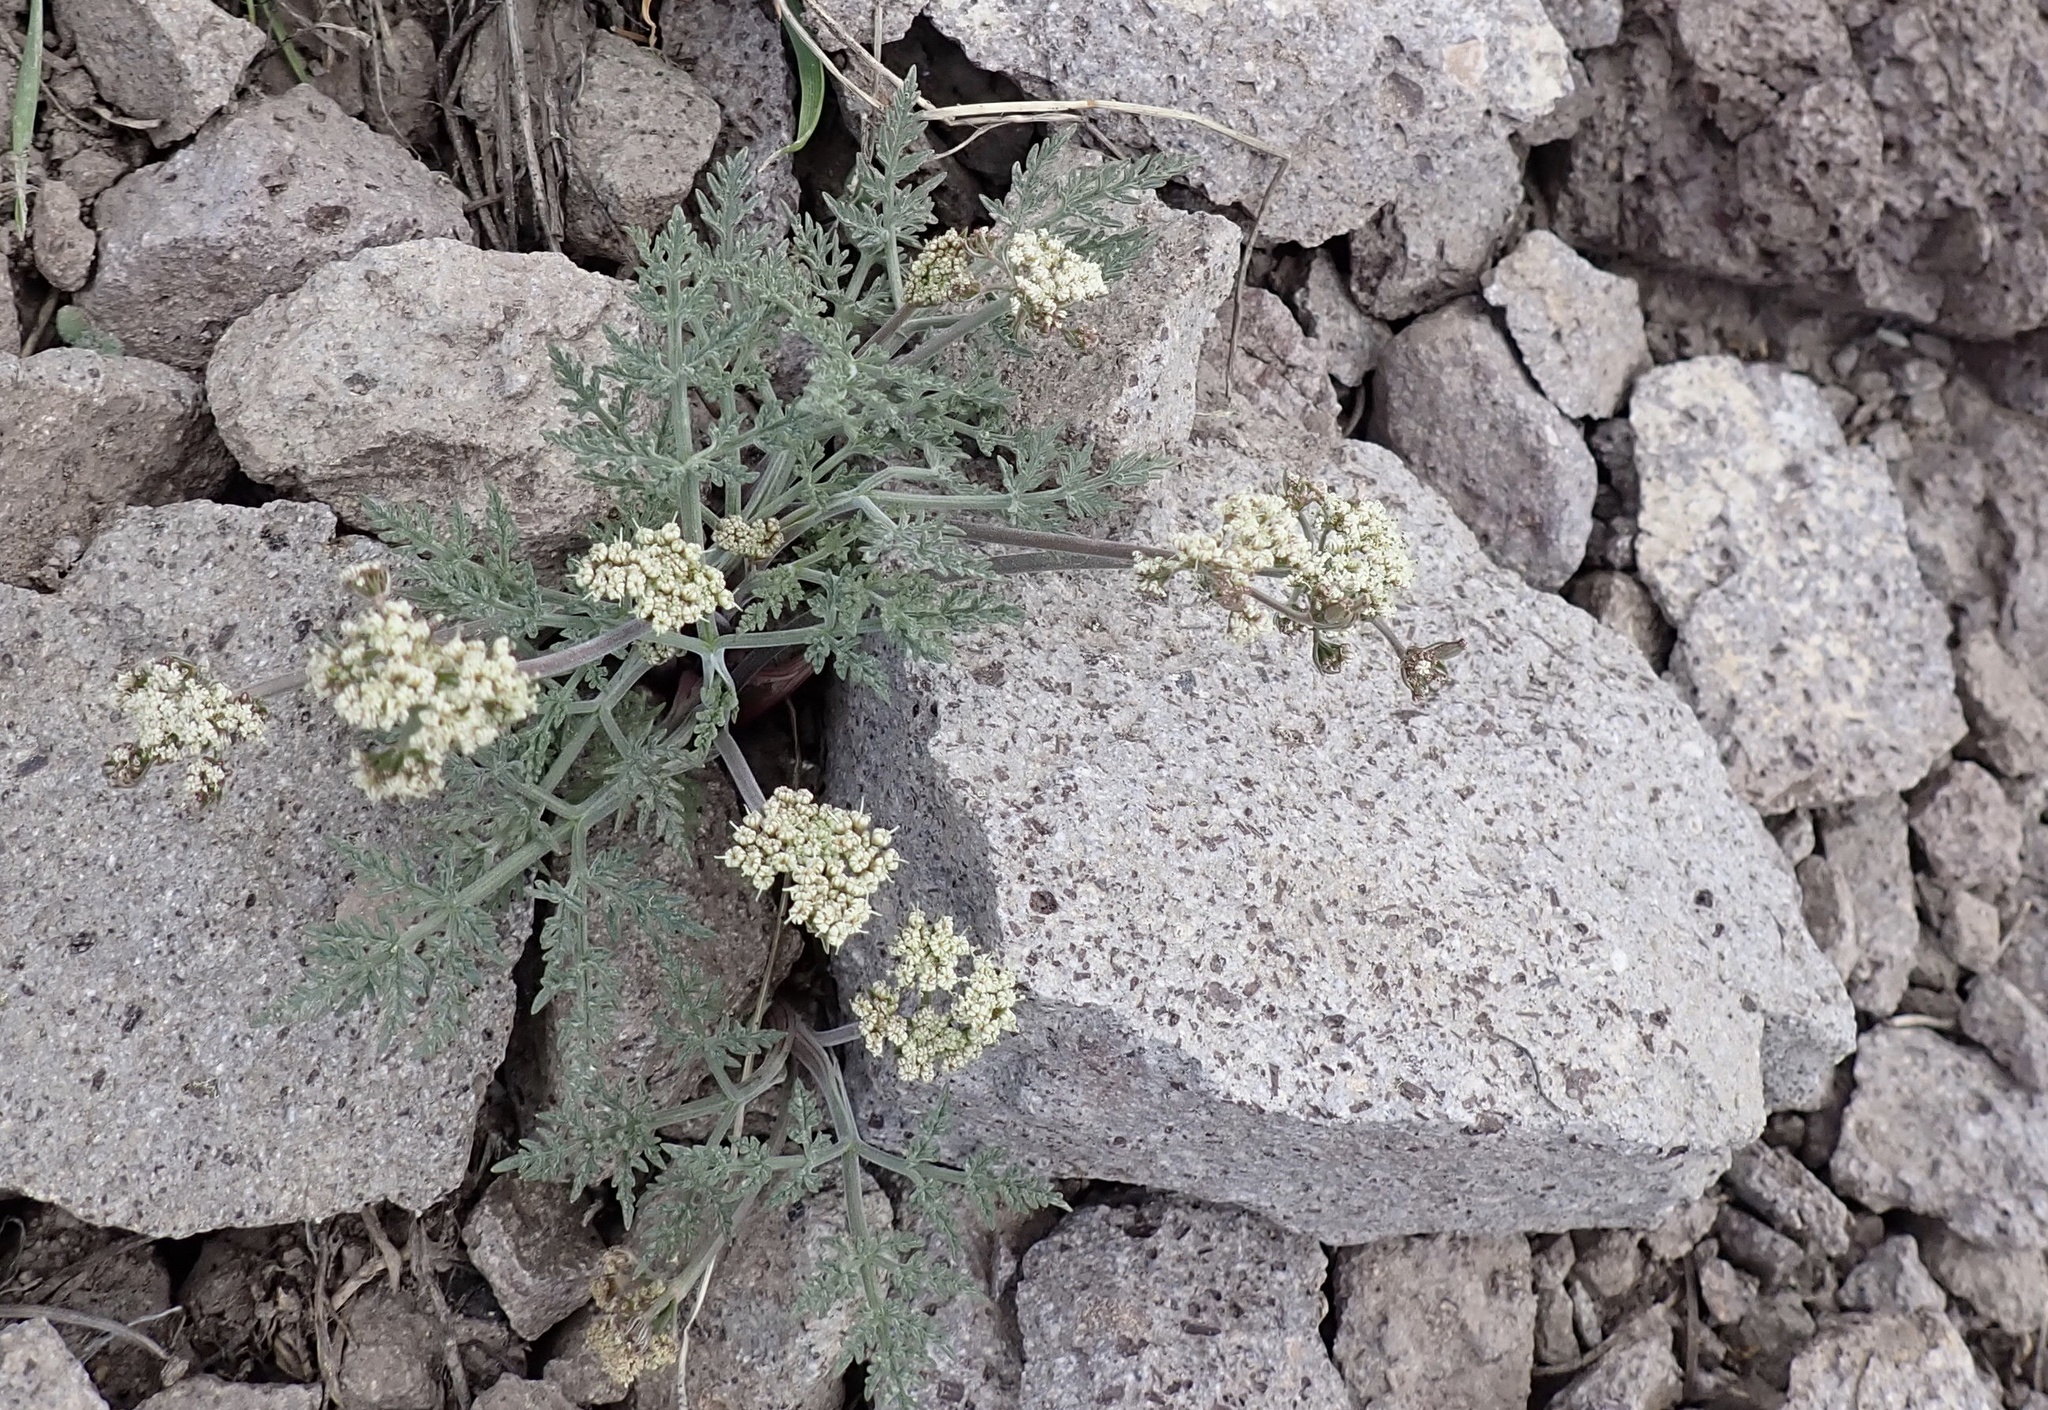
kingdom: Plantae
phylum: Tracheophyta
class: Magnoliopsida
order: Apiales
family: Apiaceae
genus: Lomatium
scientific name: Lomatium nevadense
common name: Nevada lomatium
